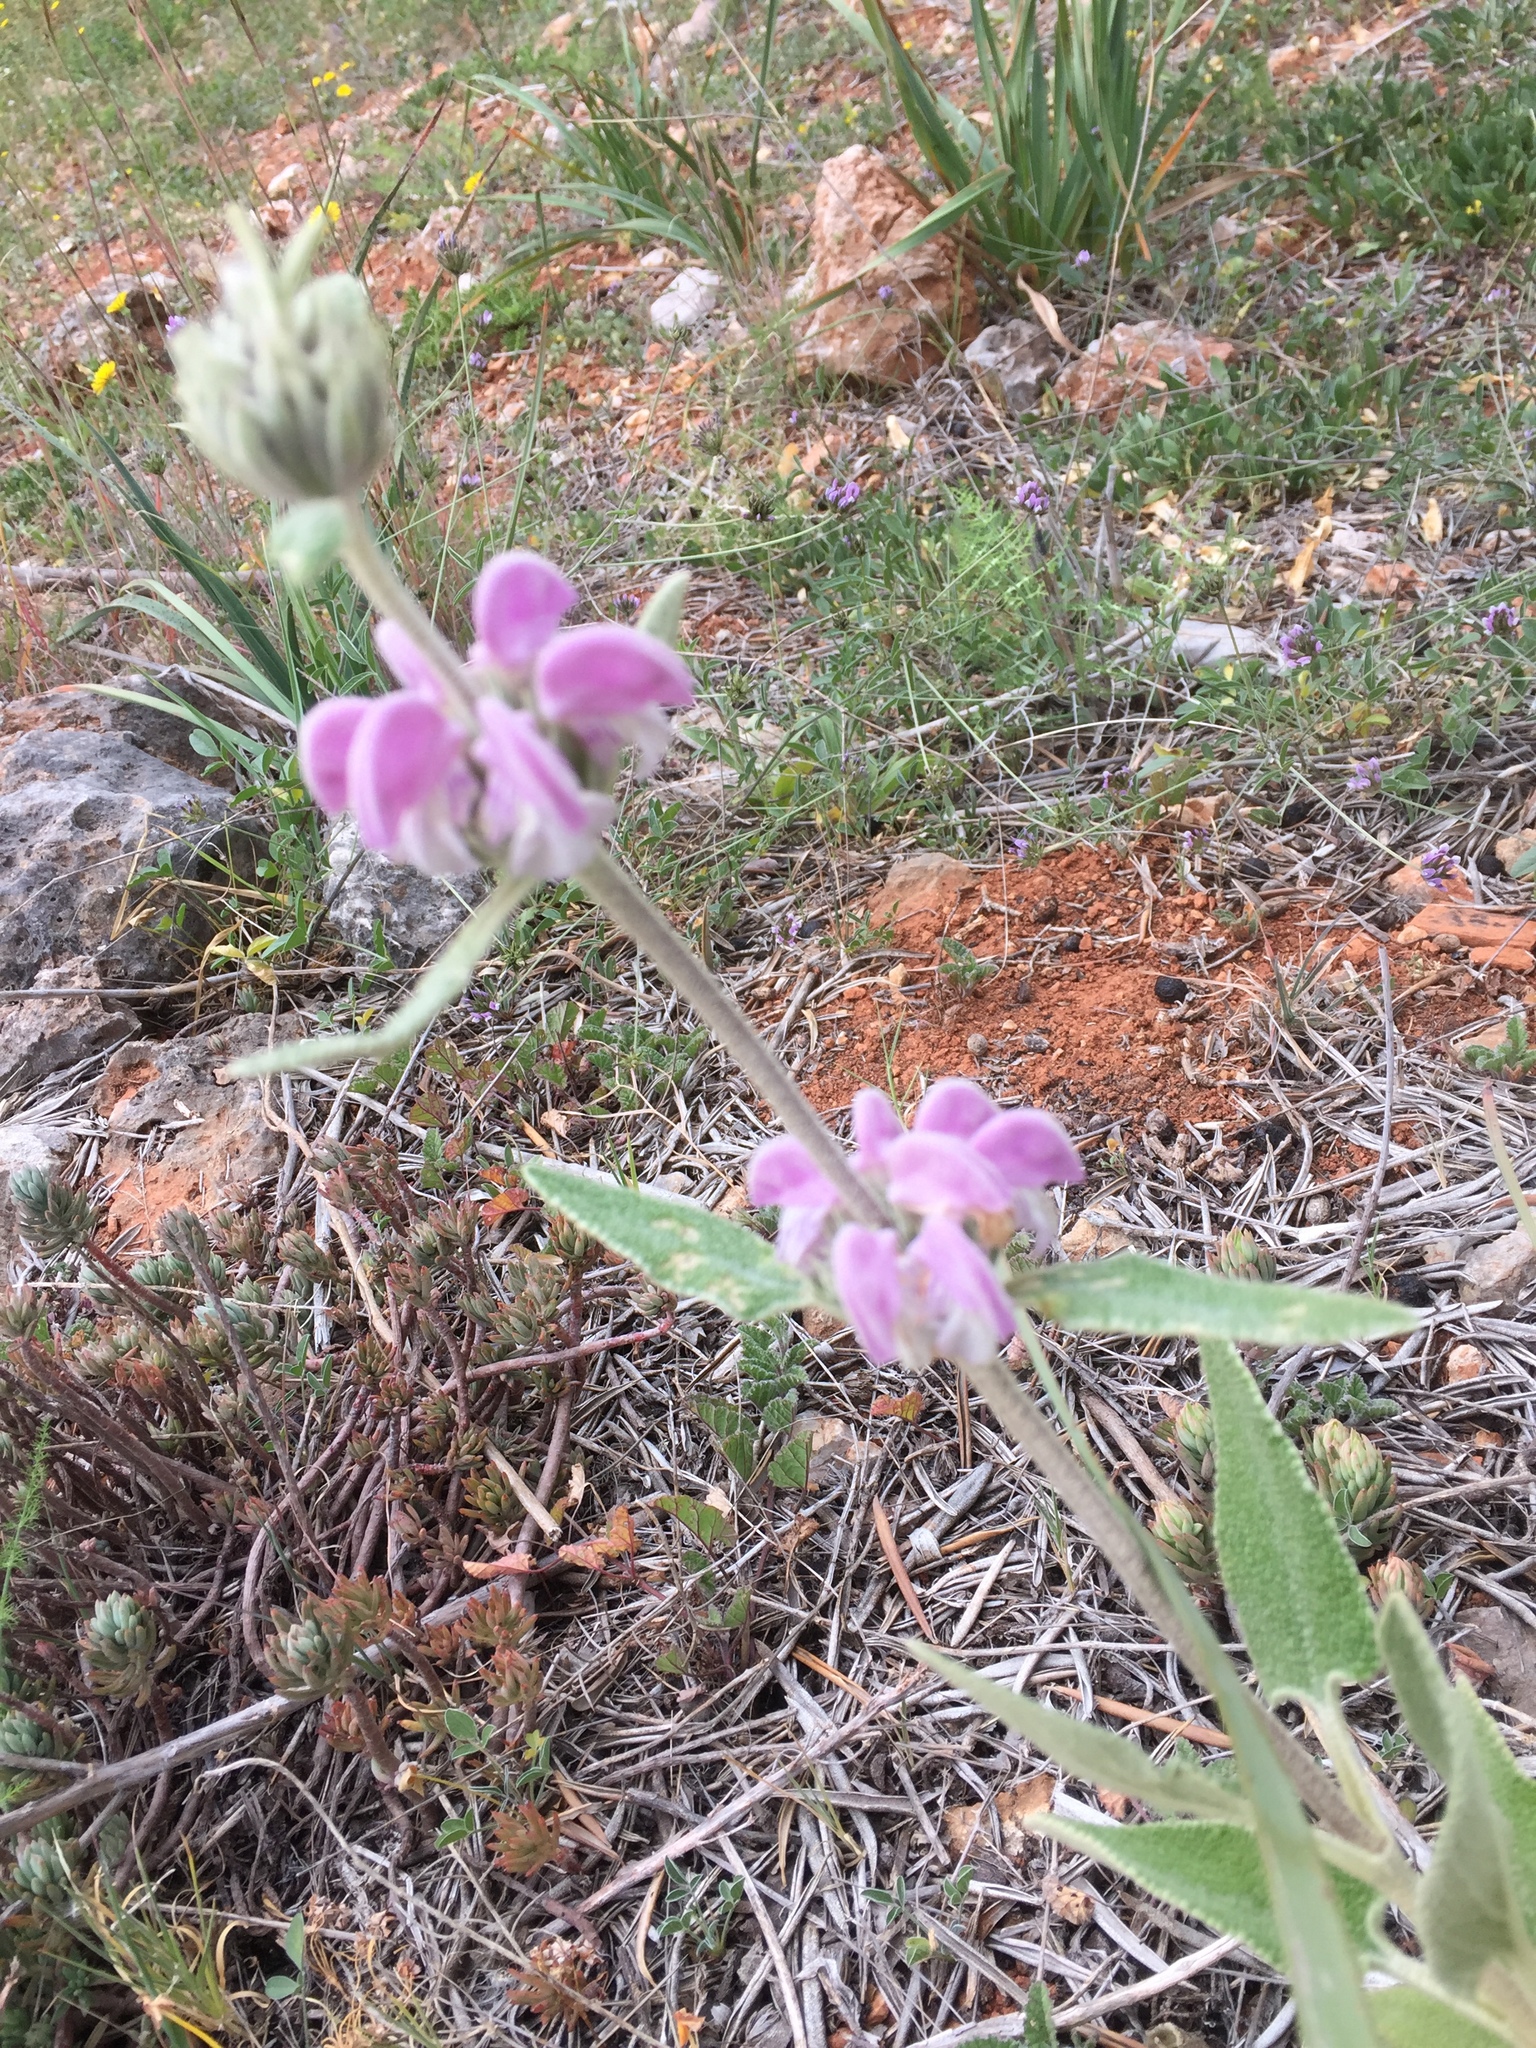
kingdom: Plantae
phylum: Tracheophyta
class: Magnoliopsida
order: Lamiales
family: Lamiaceae
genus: Phlomis
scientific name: Phlomis purpurea
